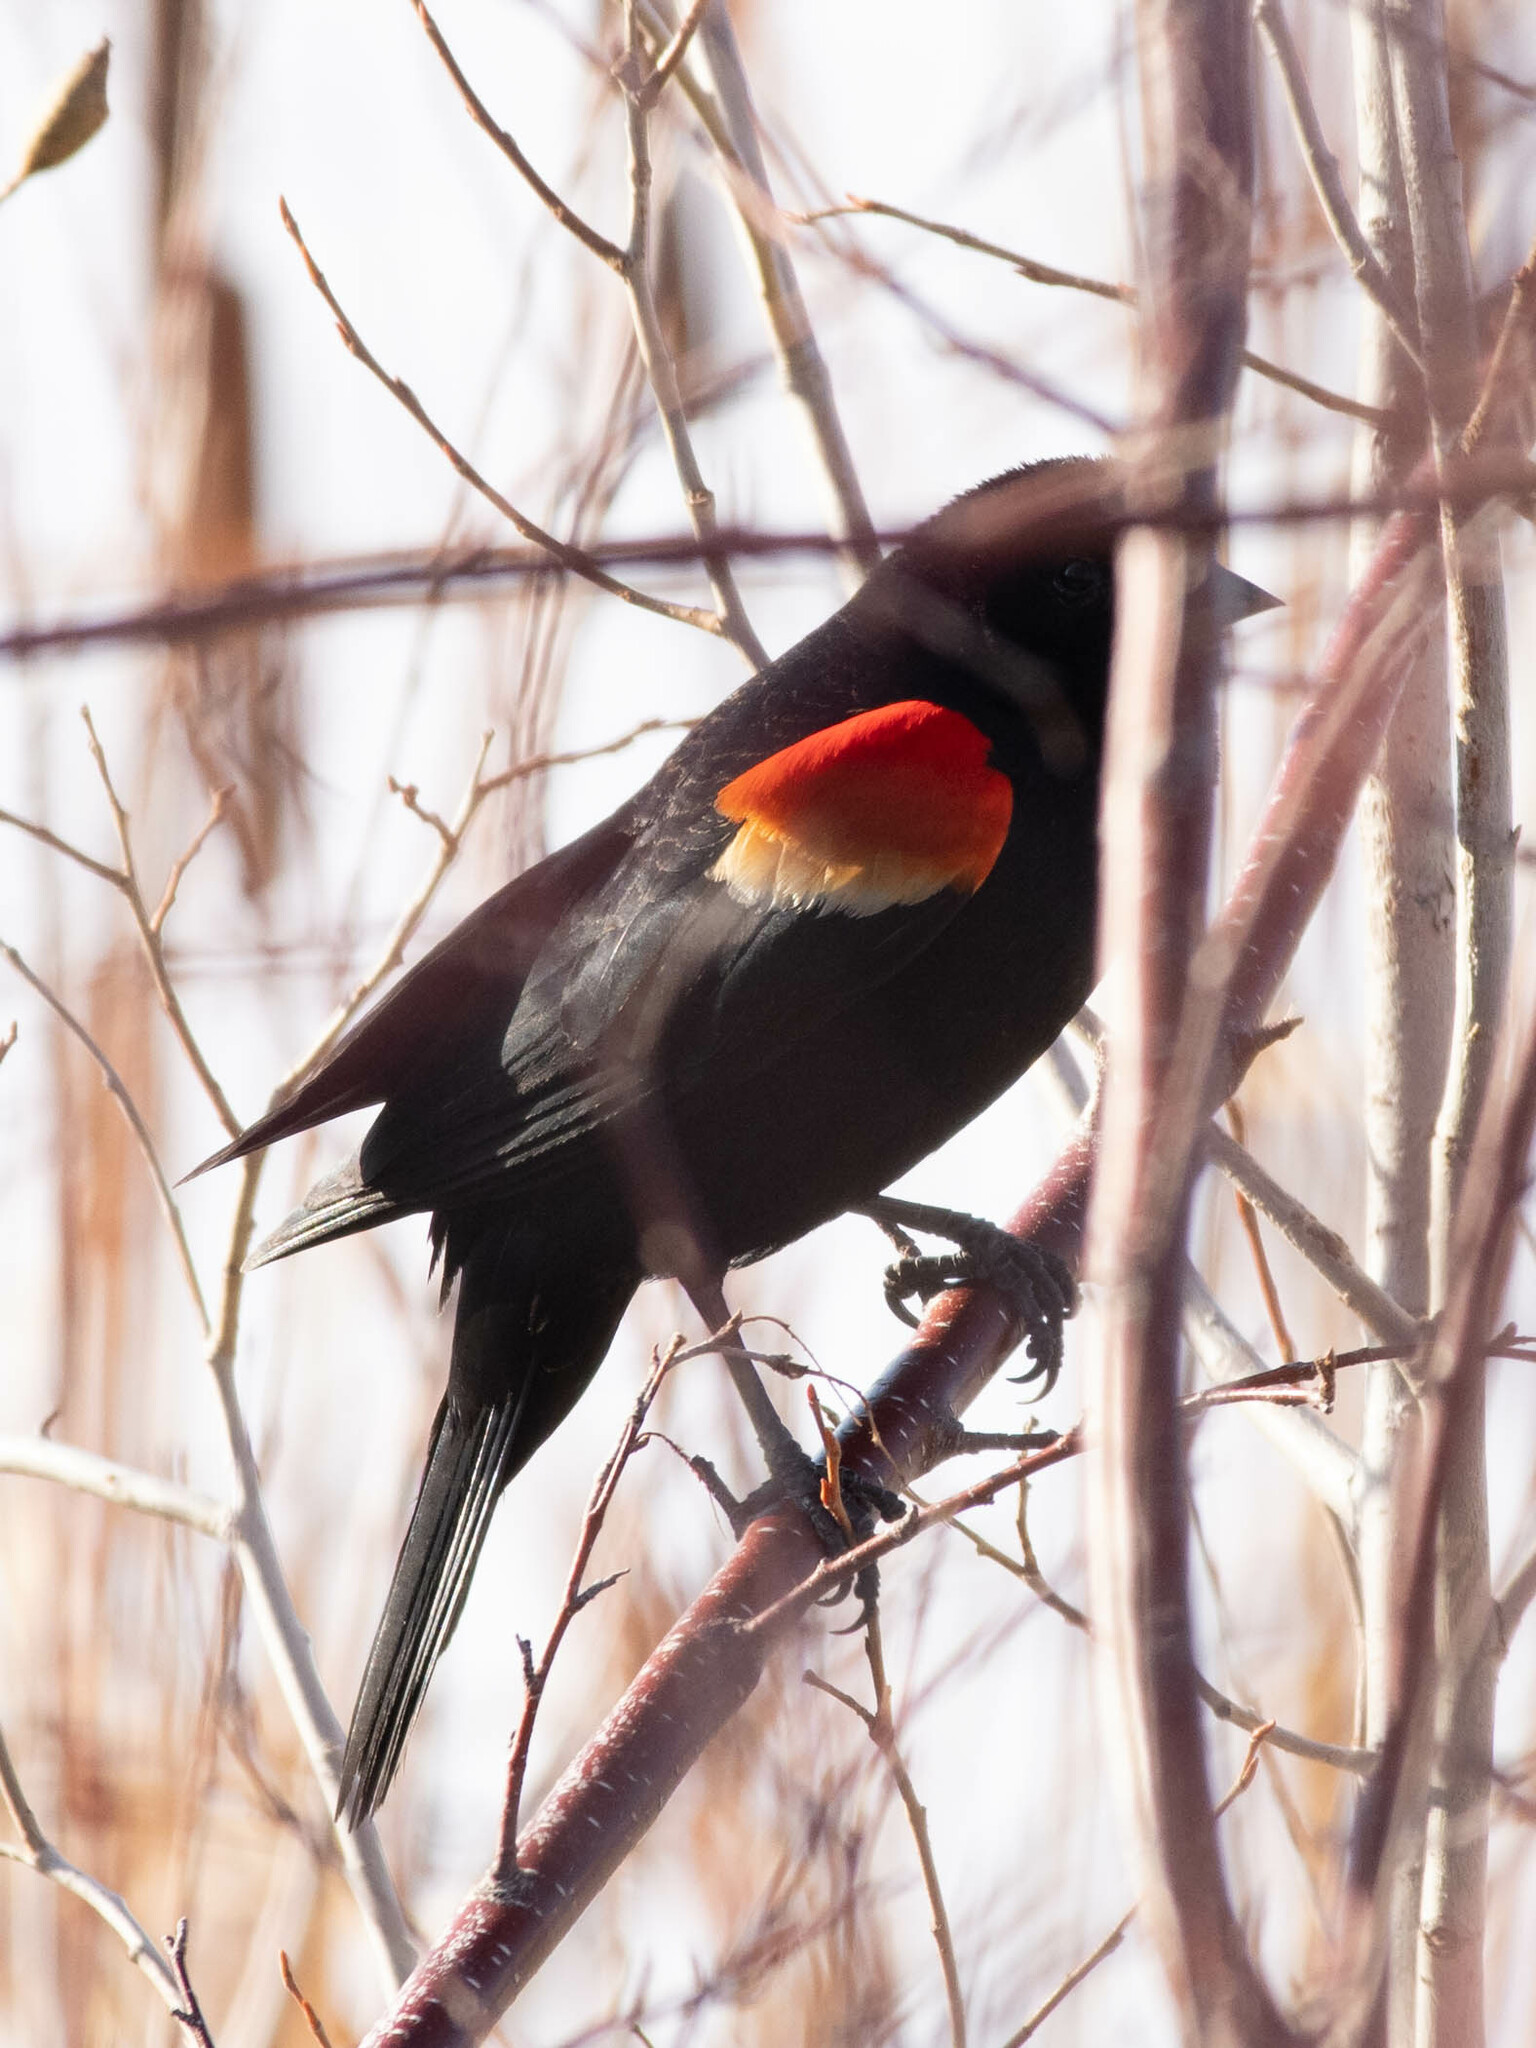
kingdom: Animalia
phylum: Chordata
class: Aves
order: Passeriformes
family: Icteridae
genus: Agelaius
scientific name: Agelaius phoeniceus
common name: Red-winged blackbird
